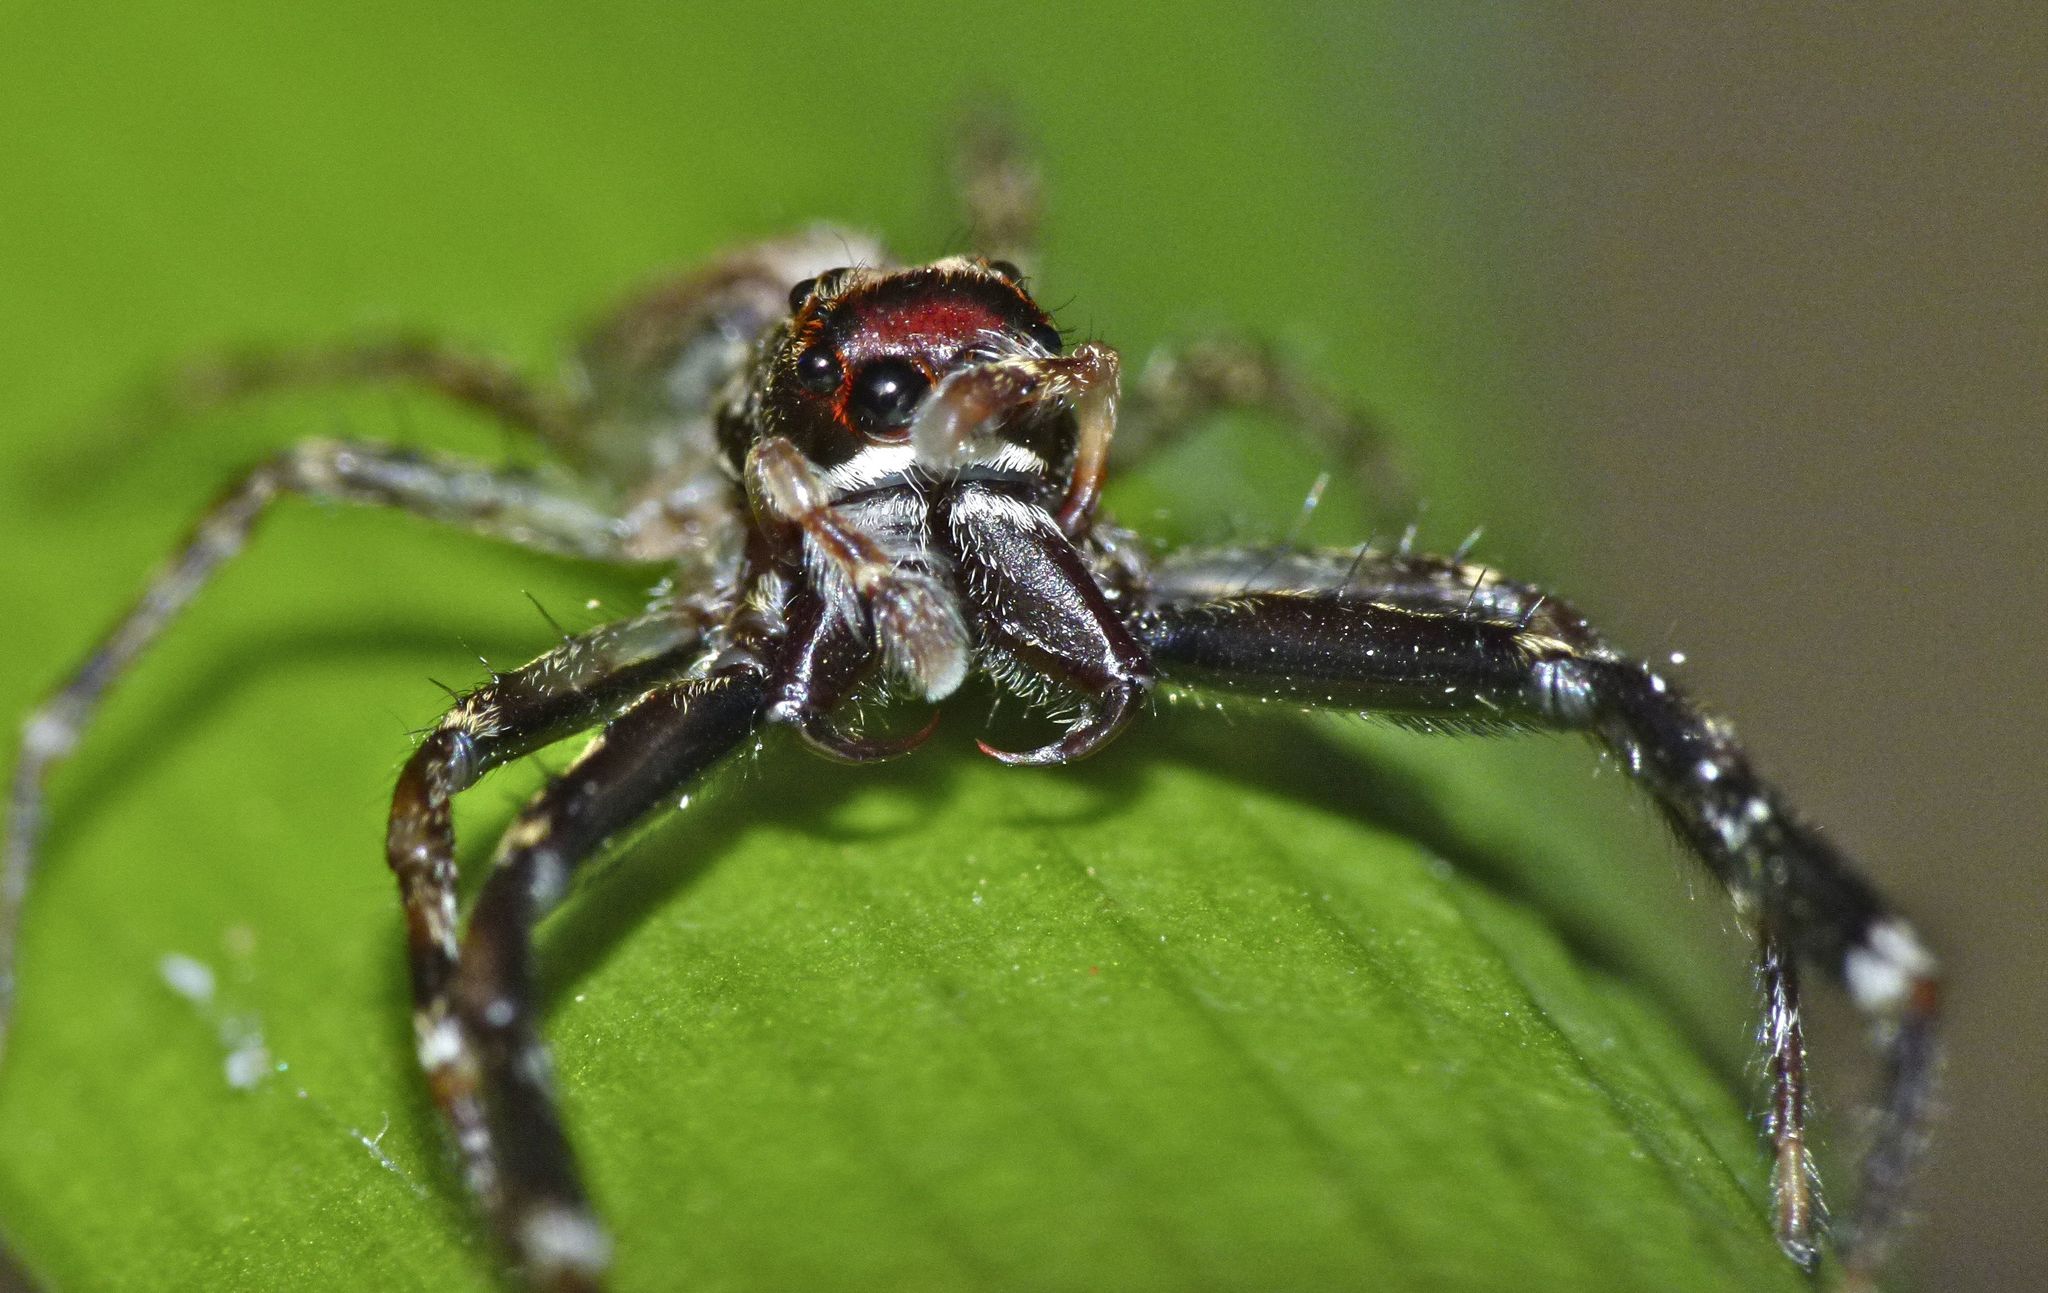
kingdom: Animalia
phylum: Arthropoda
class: Arachnida
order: Araneae
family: Salticidae
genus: Helpis
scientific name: Helpis minitabunda
